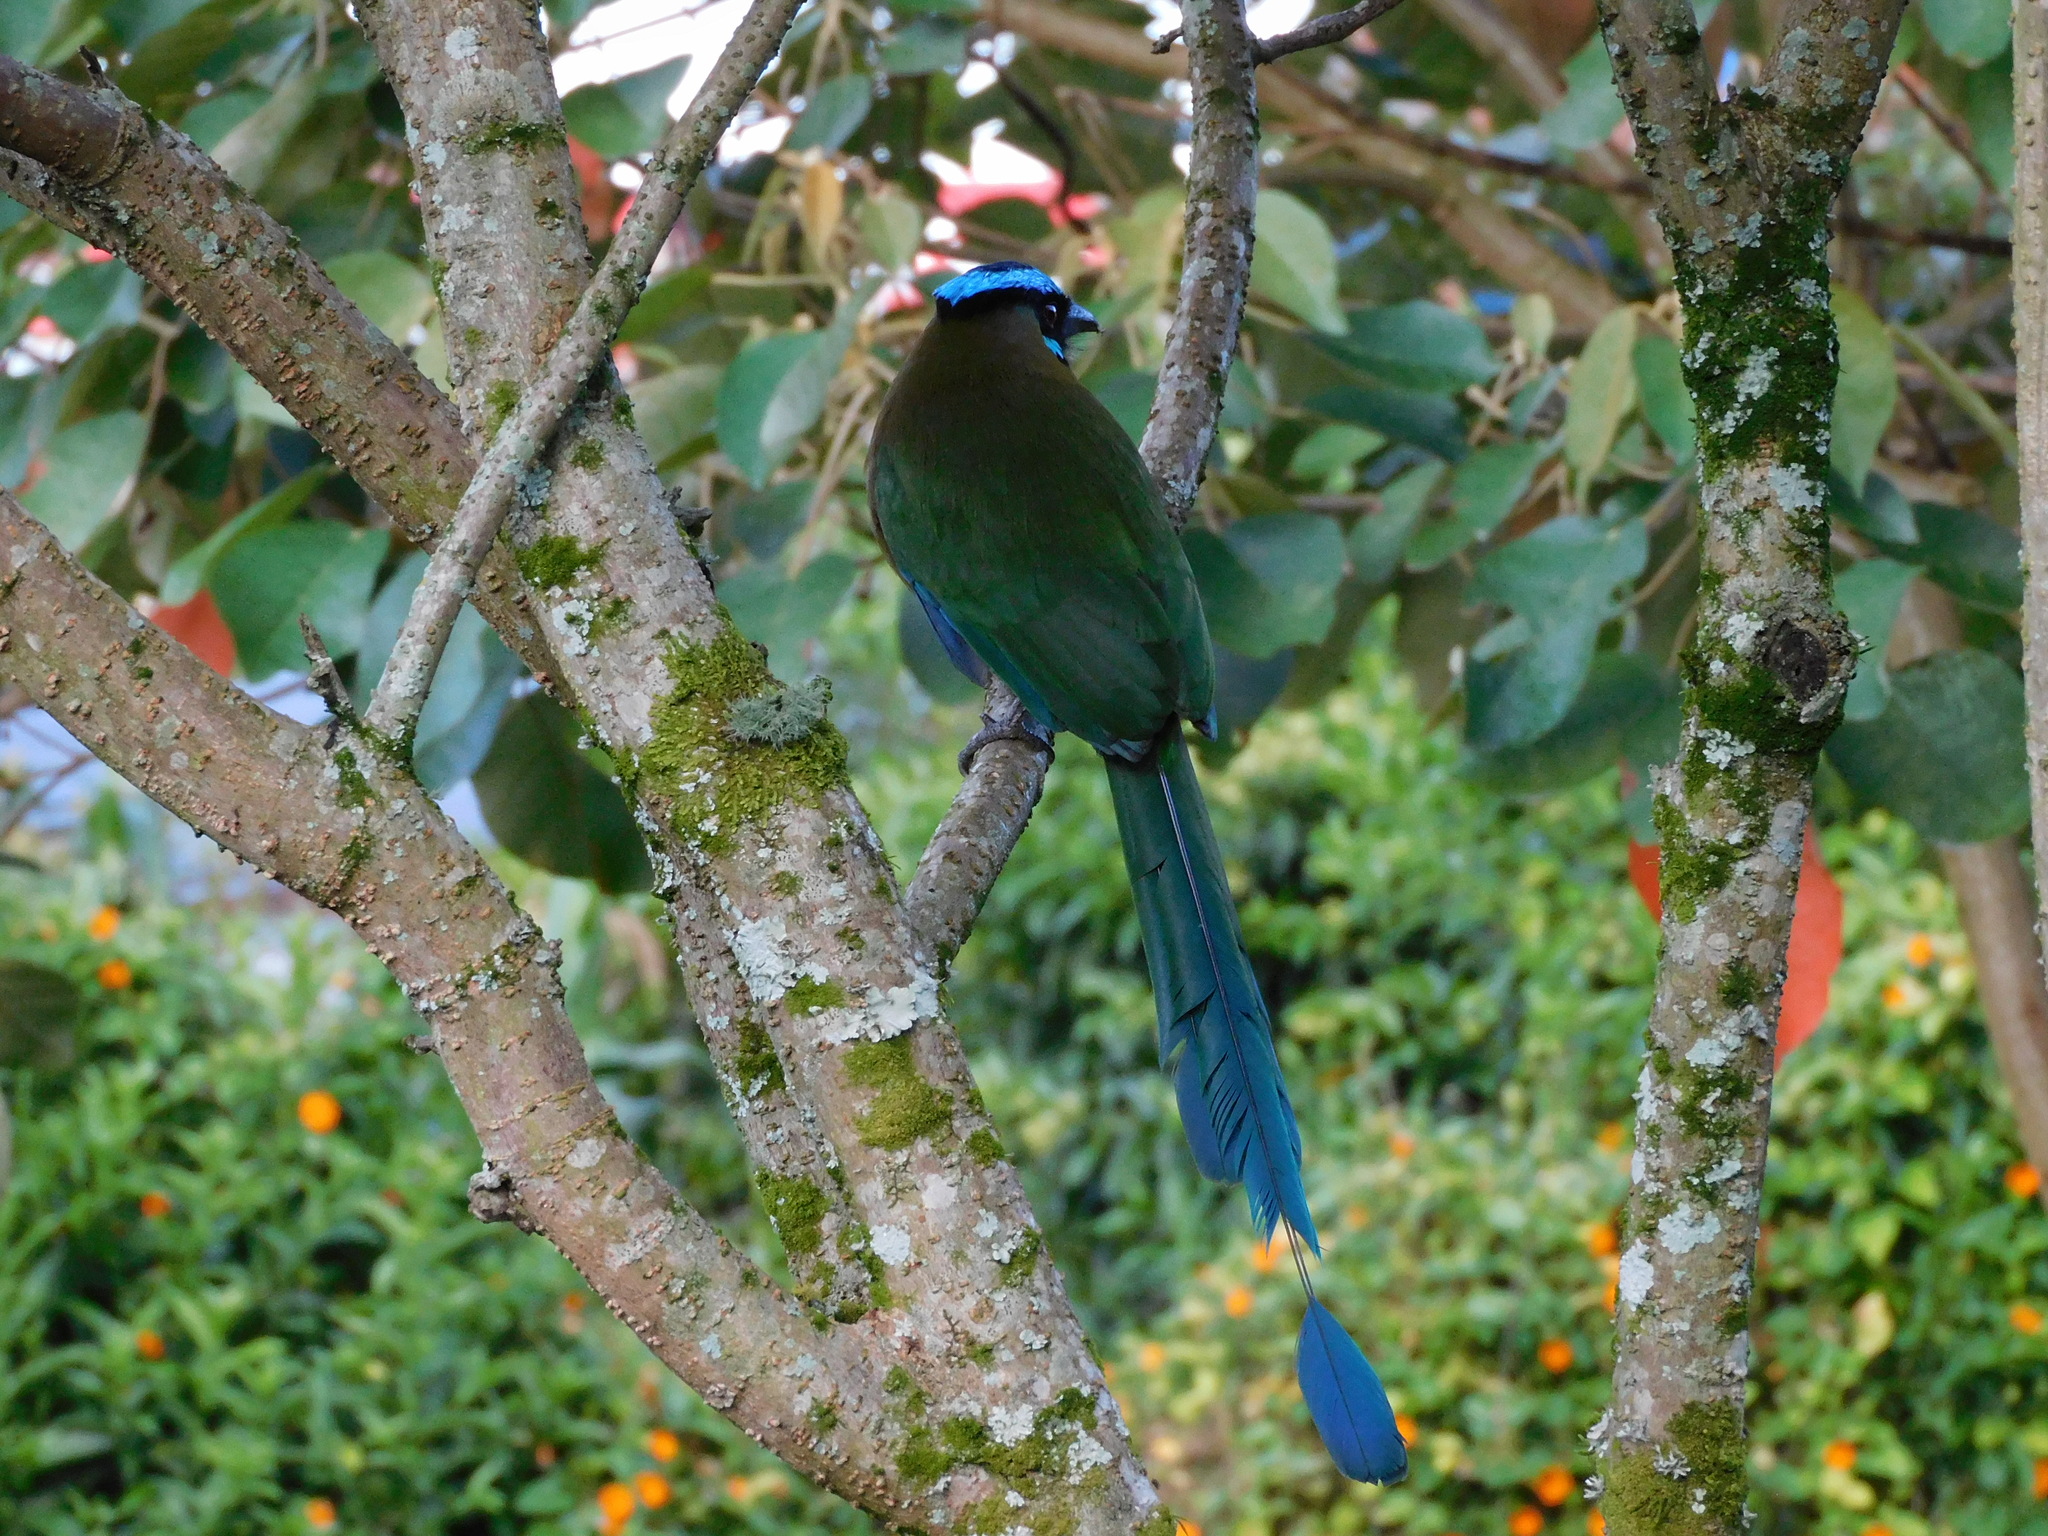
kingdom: Animalia
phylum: Chordata
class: Aves
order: Coraciiformes
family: Momotidae
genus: Momotus
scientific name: Momotus aequatorialis
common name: Andean motmot
